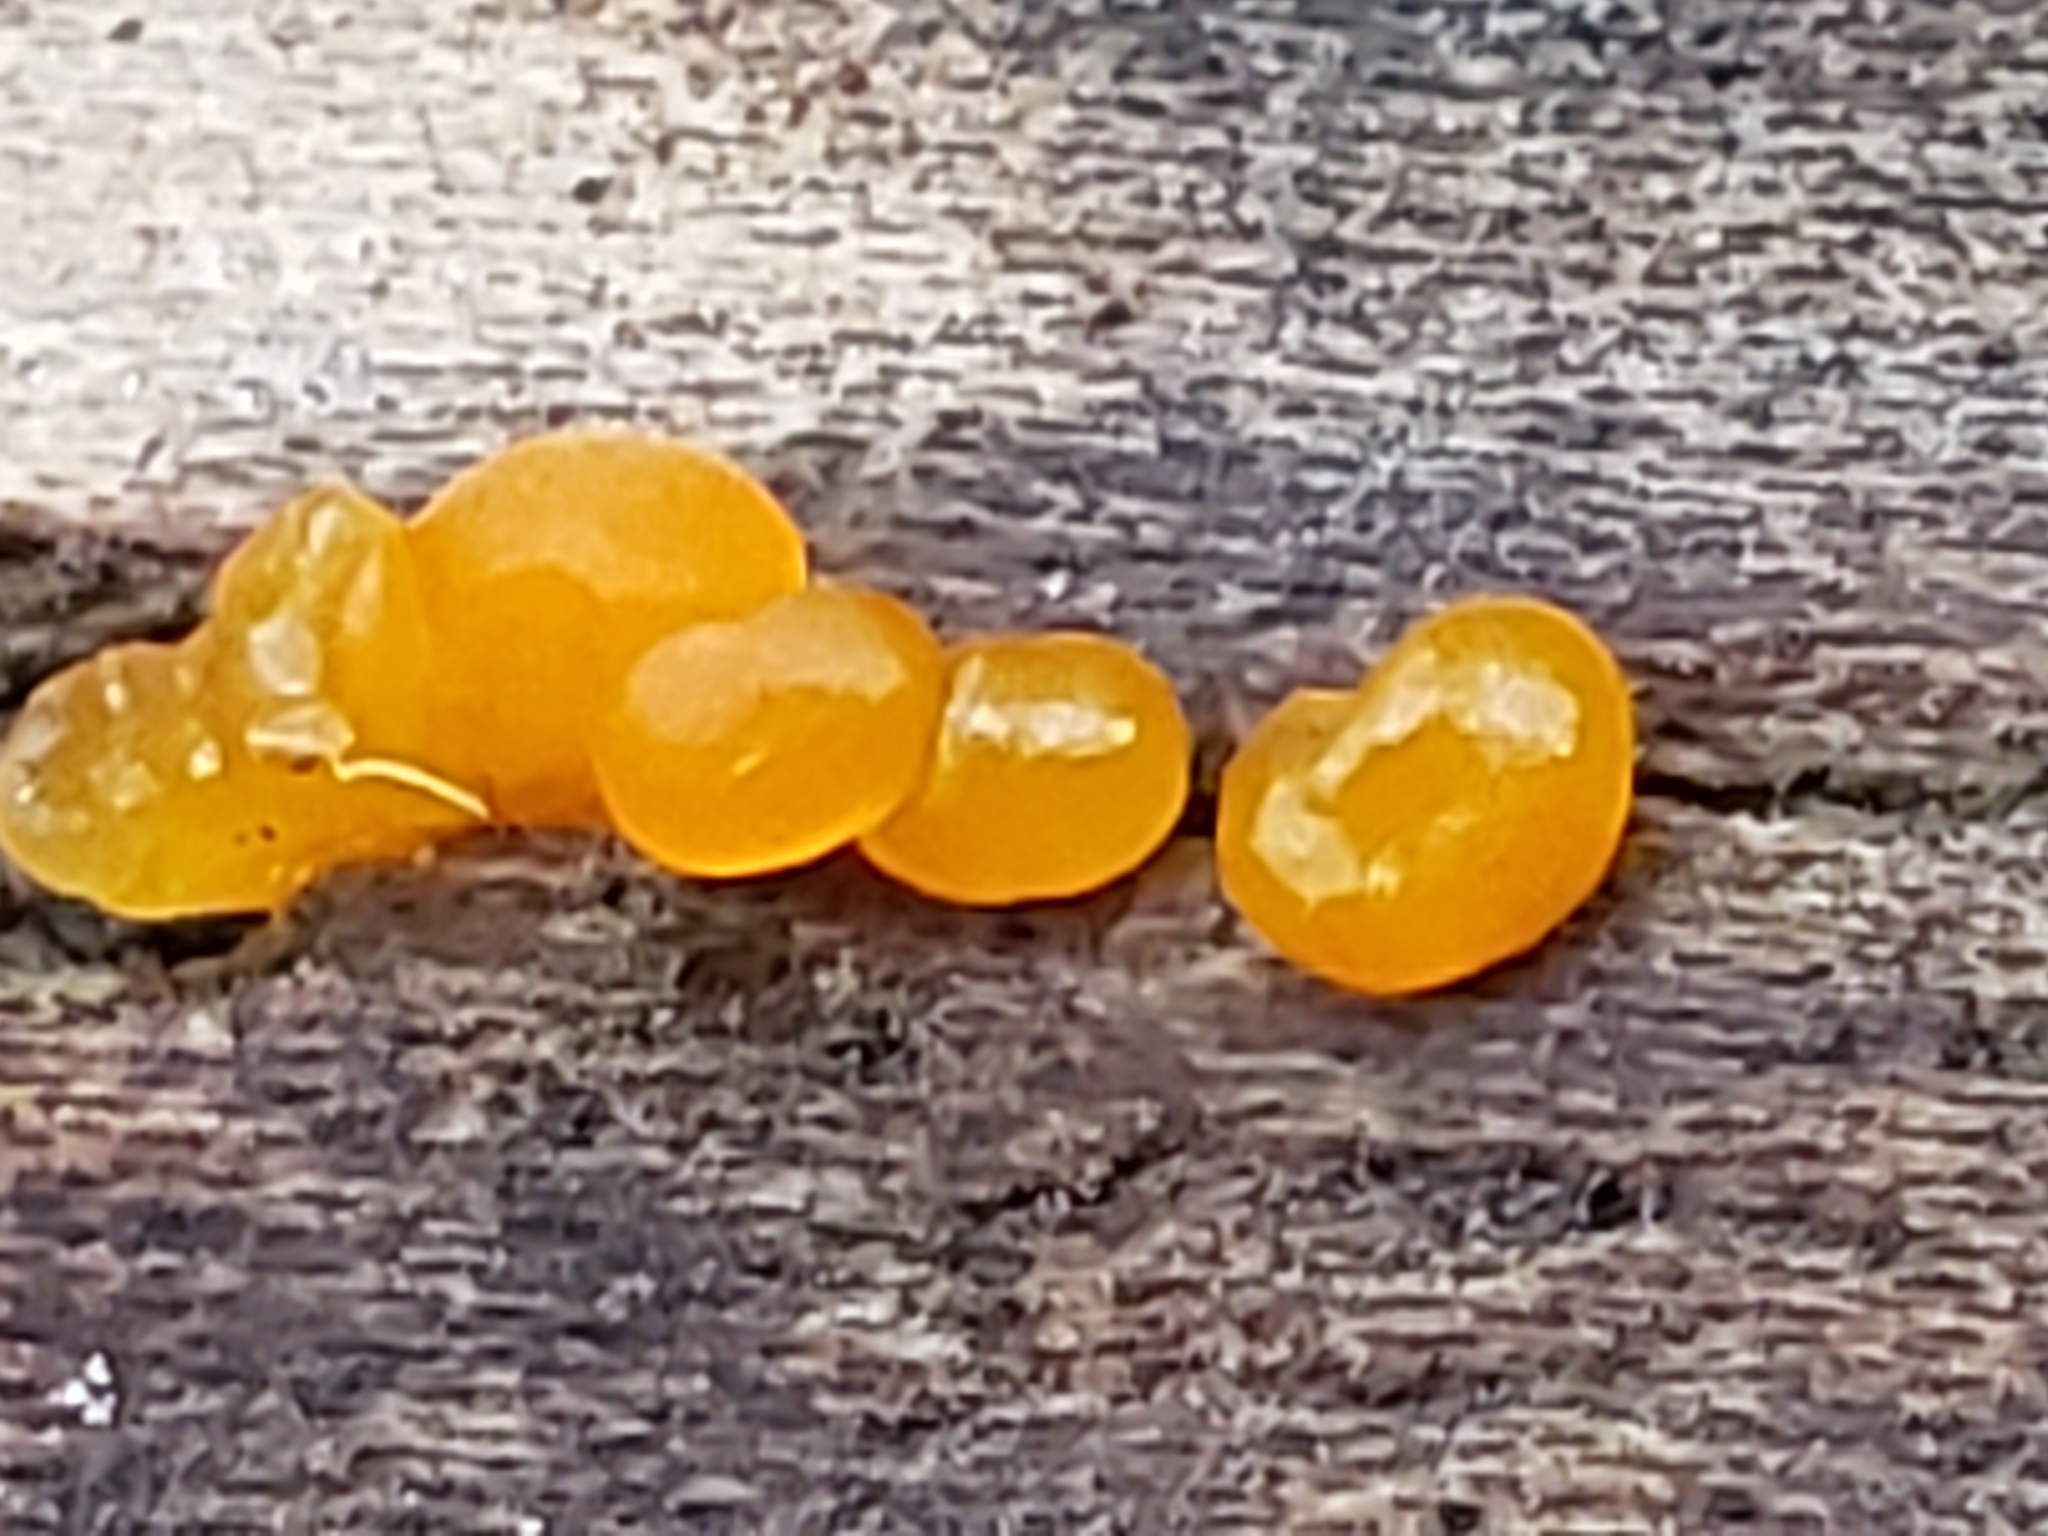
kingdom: Fungi
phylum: Basidiomycota
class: Dacrymycetes
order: Dacrymycetales
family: Dacrymycetaceae
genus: Dacrymyces
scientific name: Dacrymyces stillatus
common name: Common jelly spot
